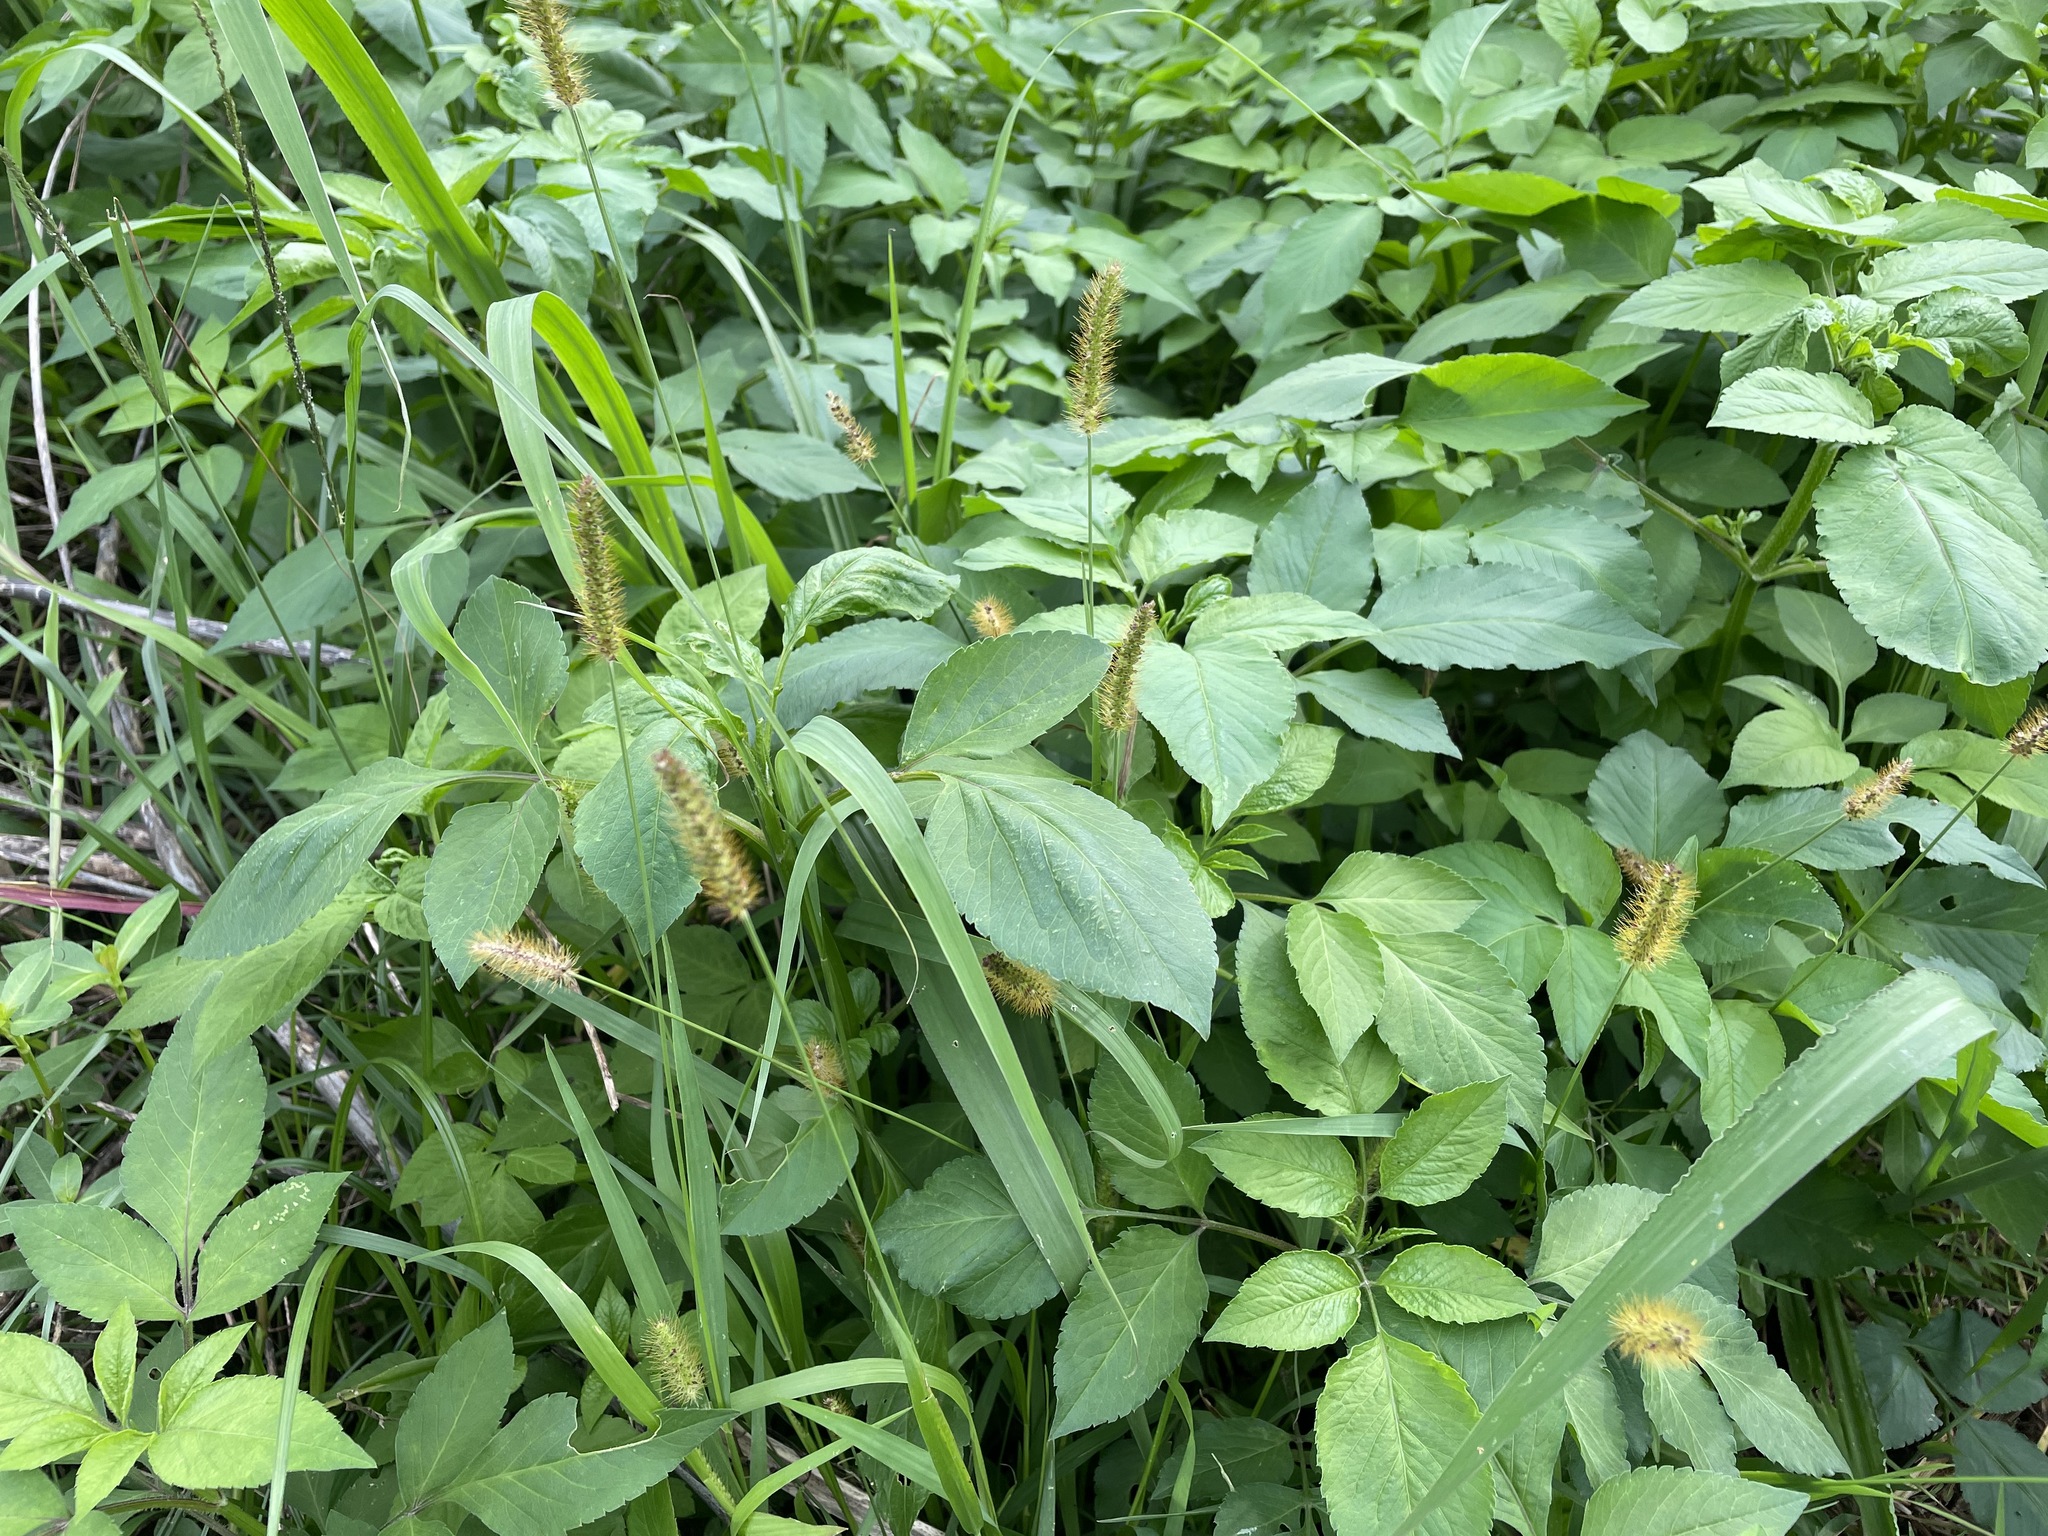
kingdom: Plantae
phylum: Tracheophyta
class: Liliopsida
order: Poales
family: Poaceae
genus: Setaria
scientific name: Setaria parviflora
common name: Knotroot bristle-grass
